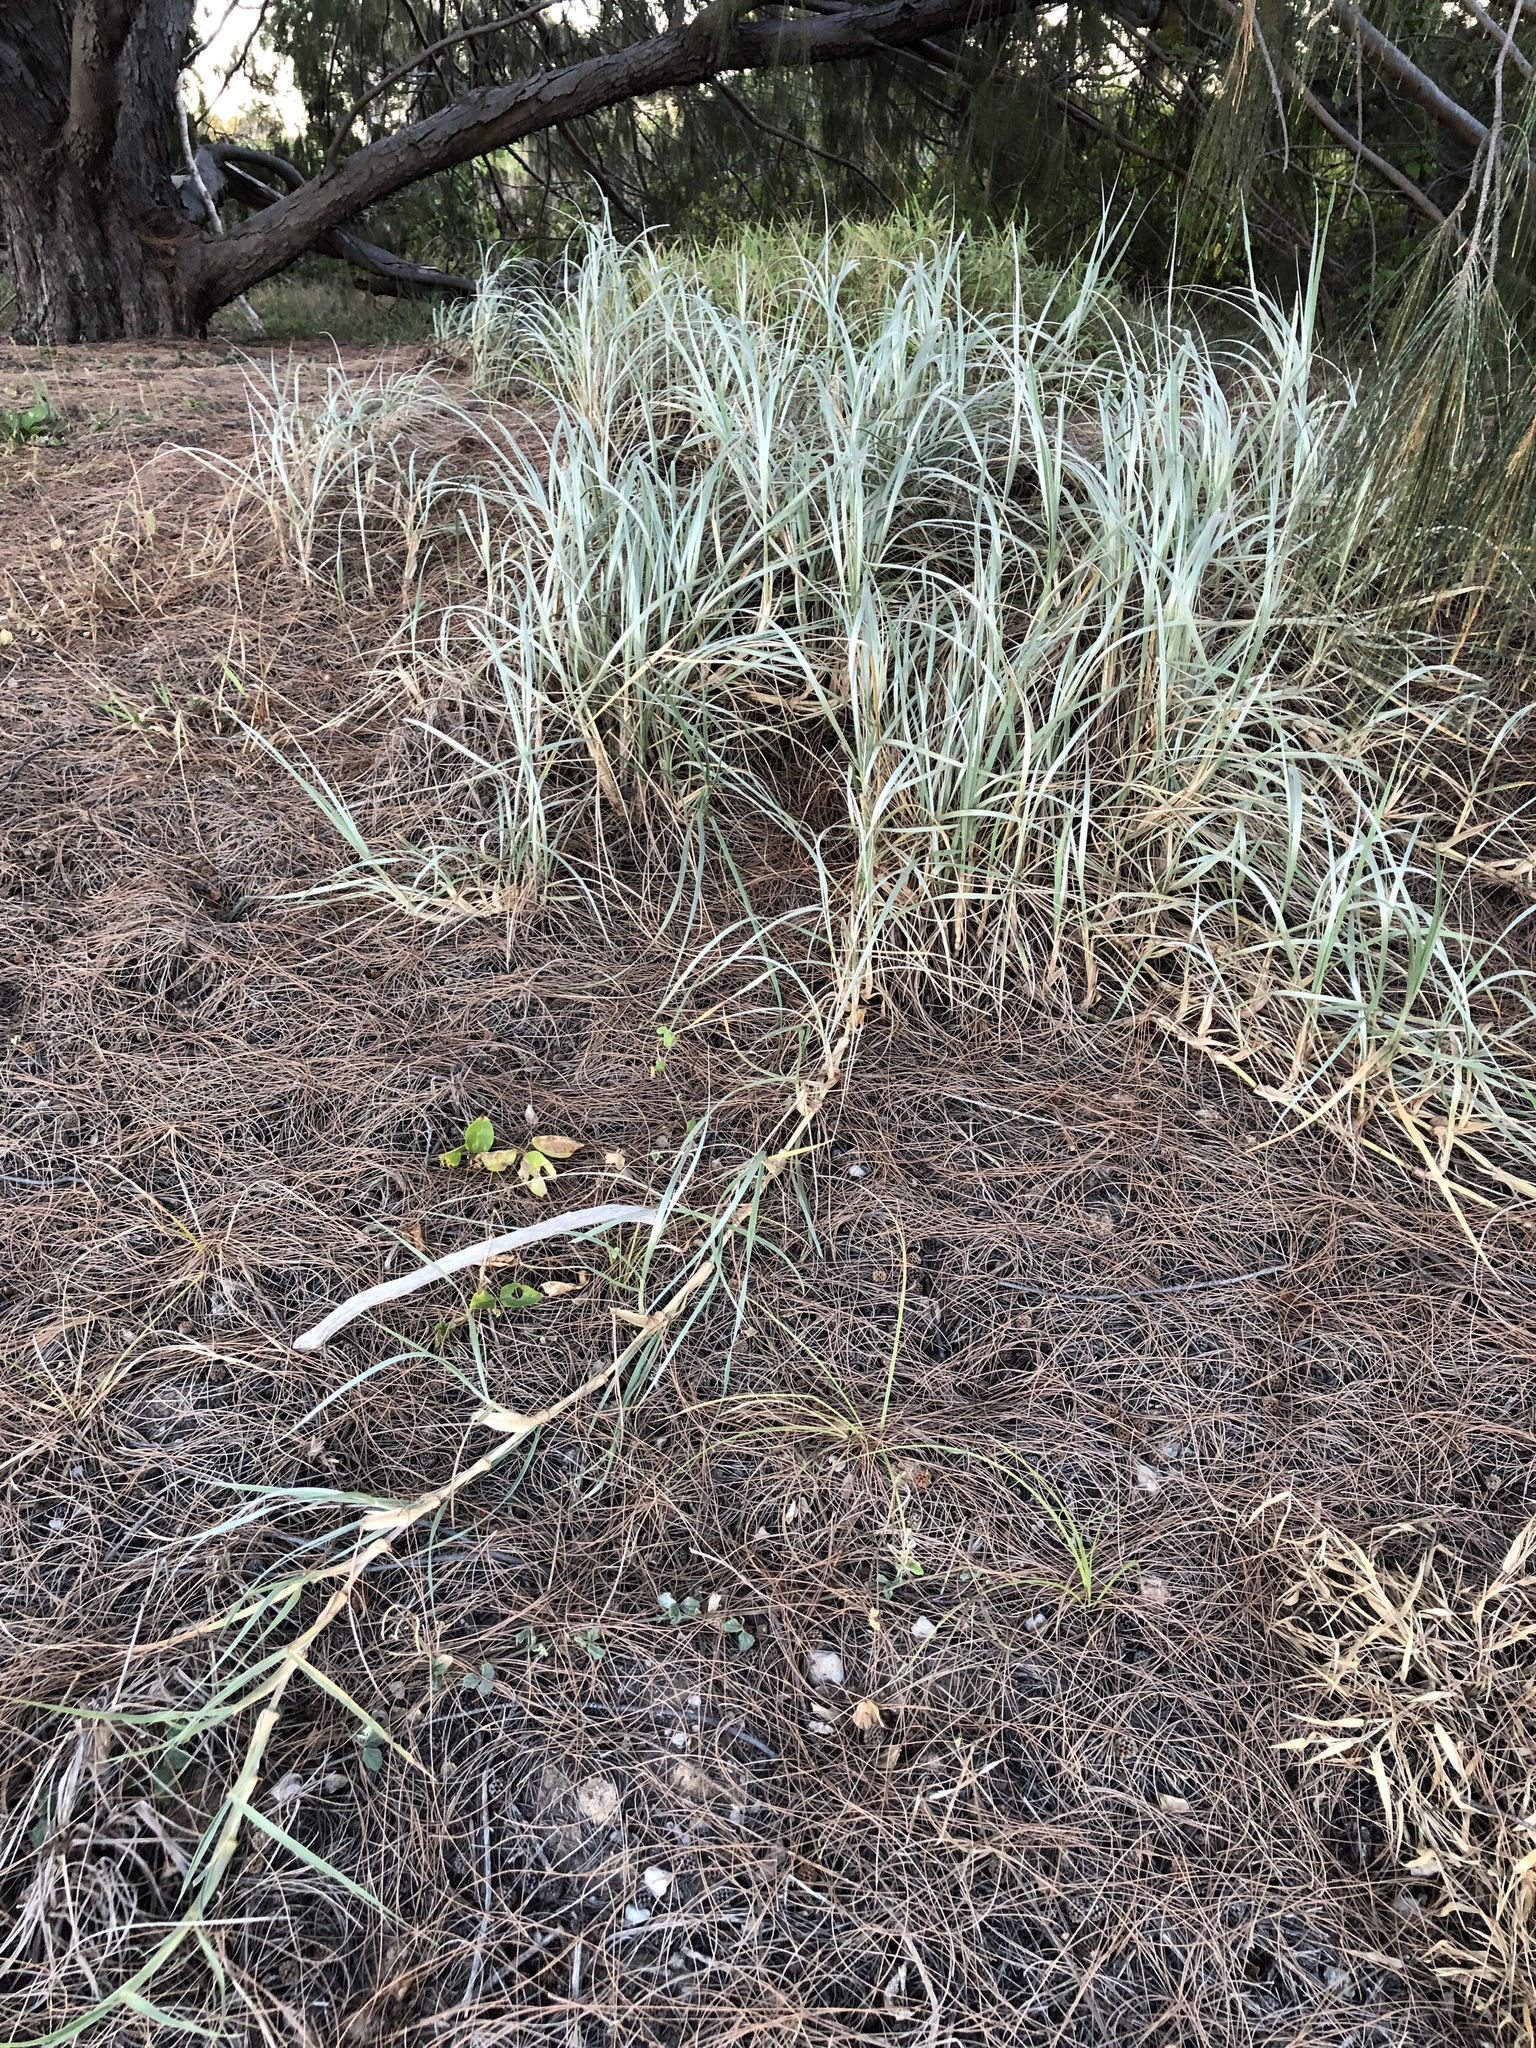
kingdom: Plantae
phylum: Tracheophyta
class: Liliopsida
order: Poales
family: Poaceae
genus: Spinifex
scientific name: Spinifex sericeus
